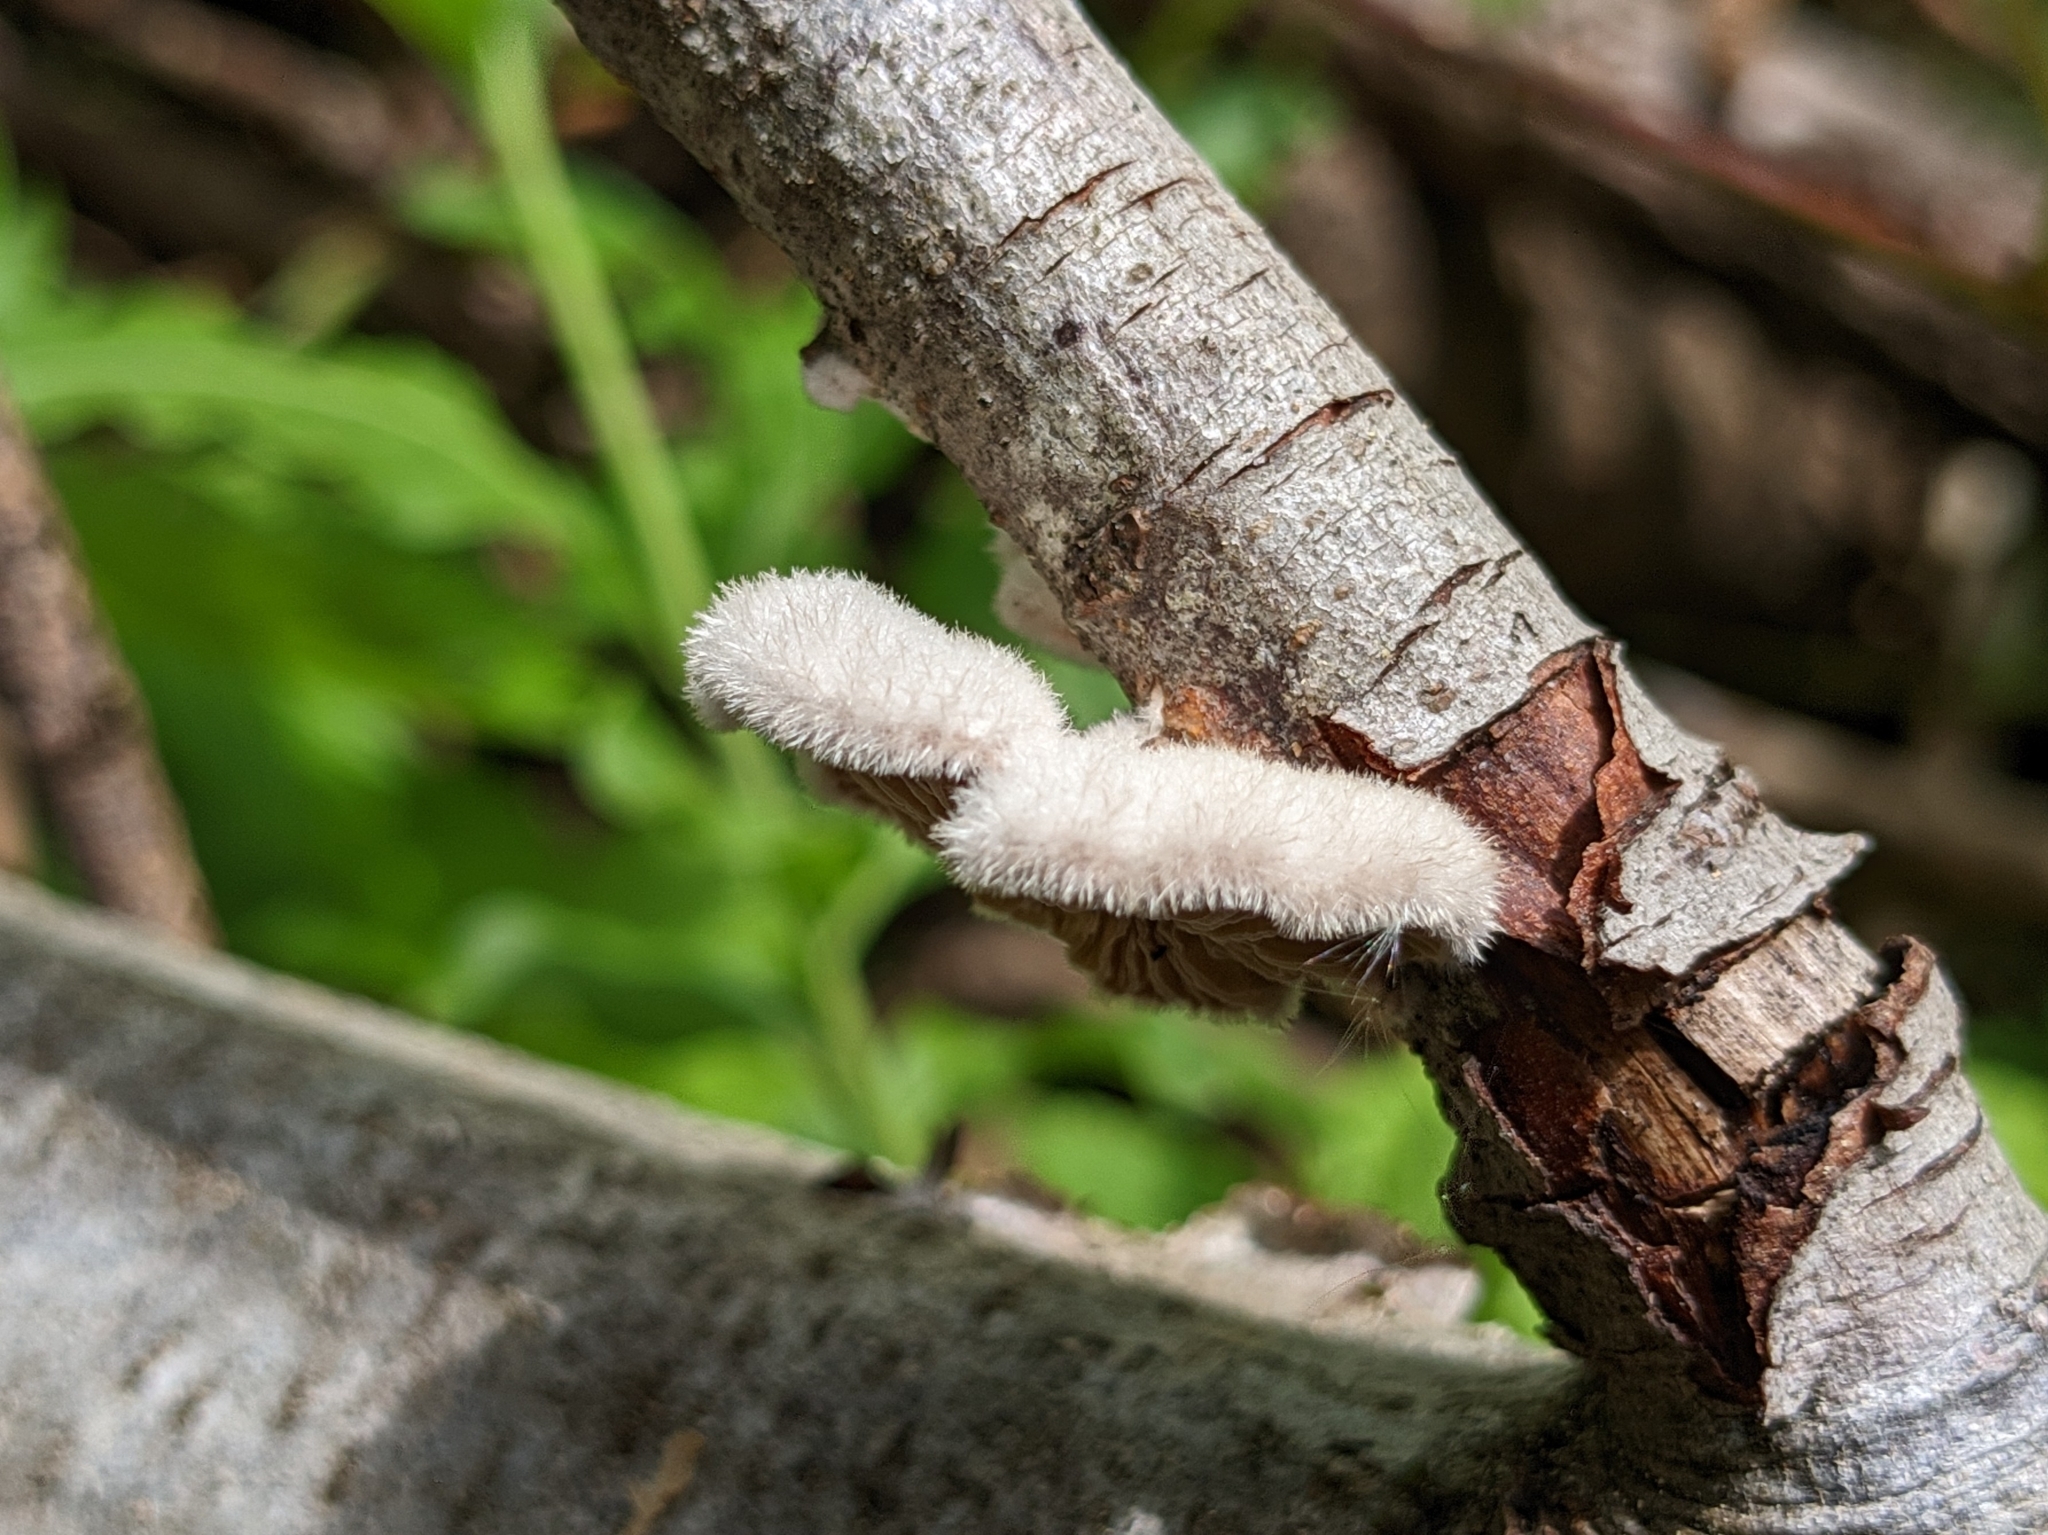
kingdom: Fungi
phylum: Basidiomycota
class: Agaricomycetes
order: Agaricales
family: Schizophyllaceae
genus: Schizophyllum
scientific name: Schizophyllum commune
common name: Common porecrust
